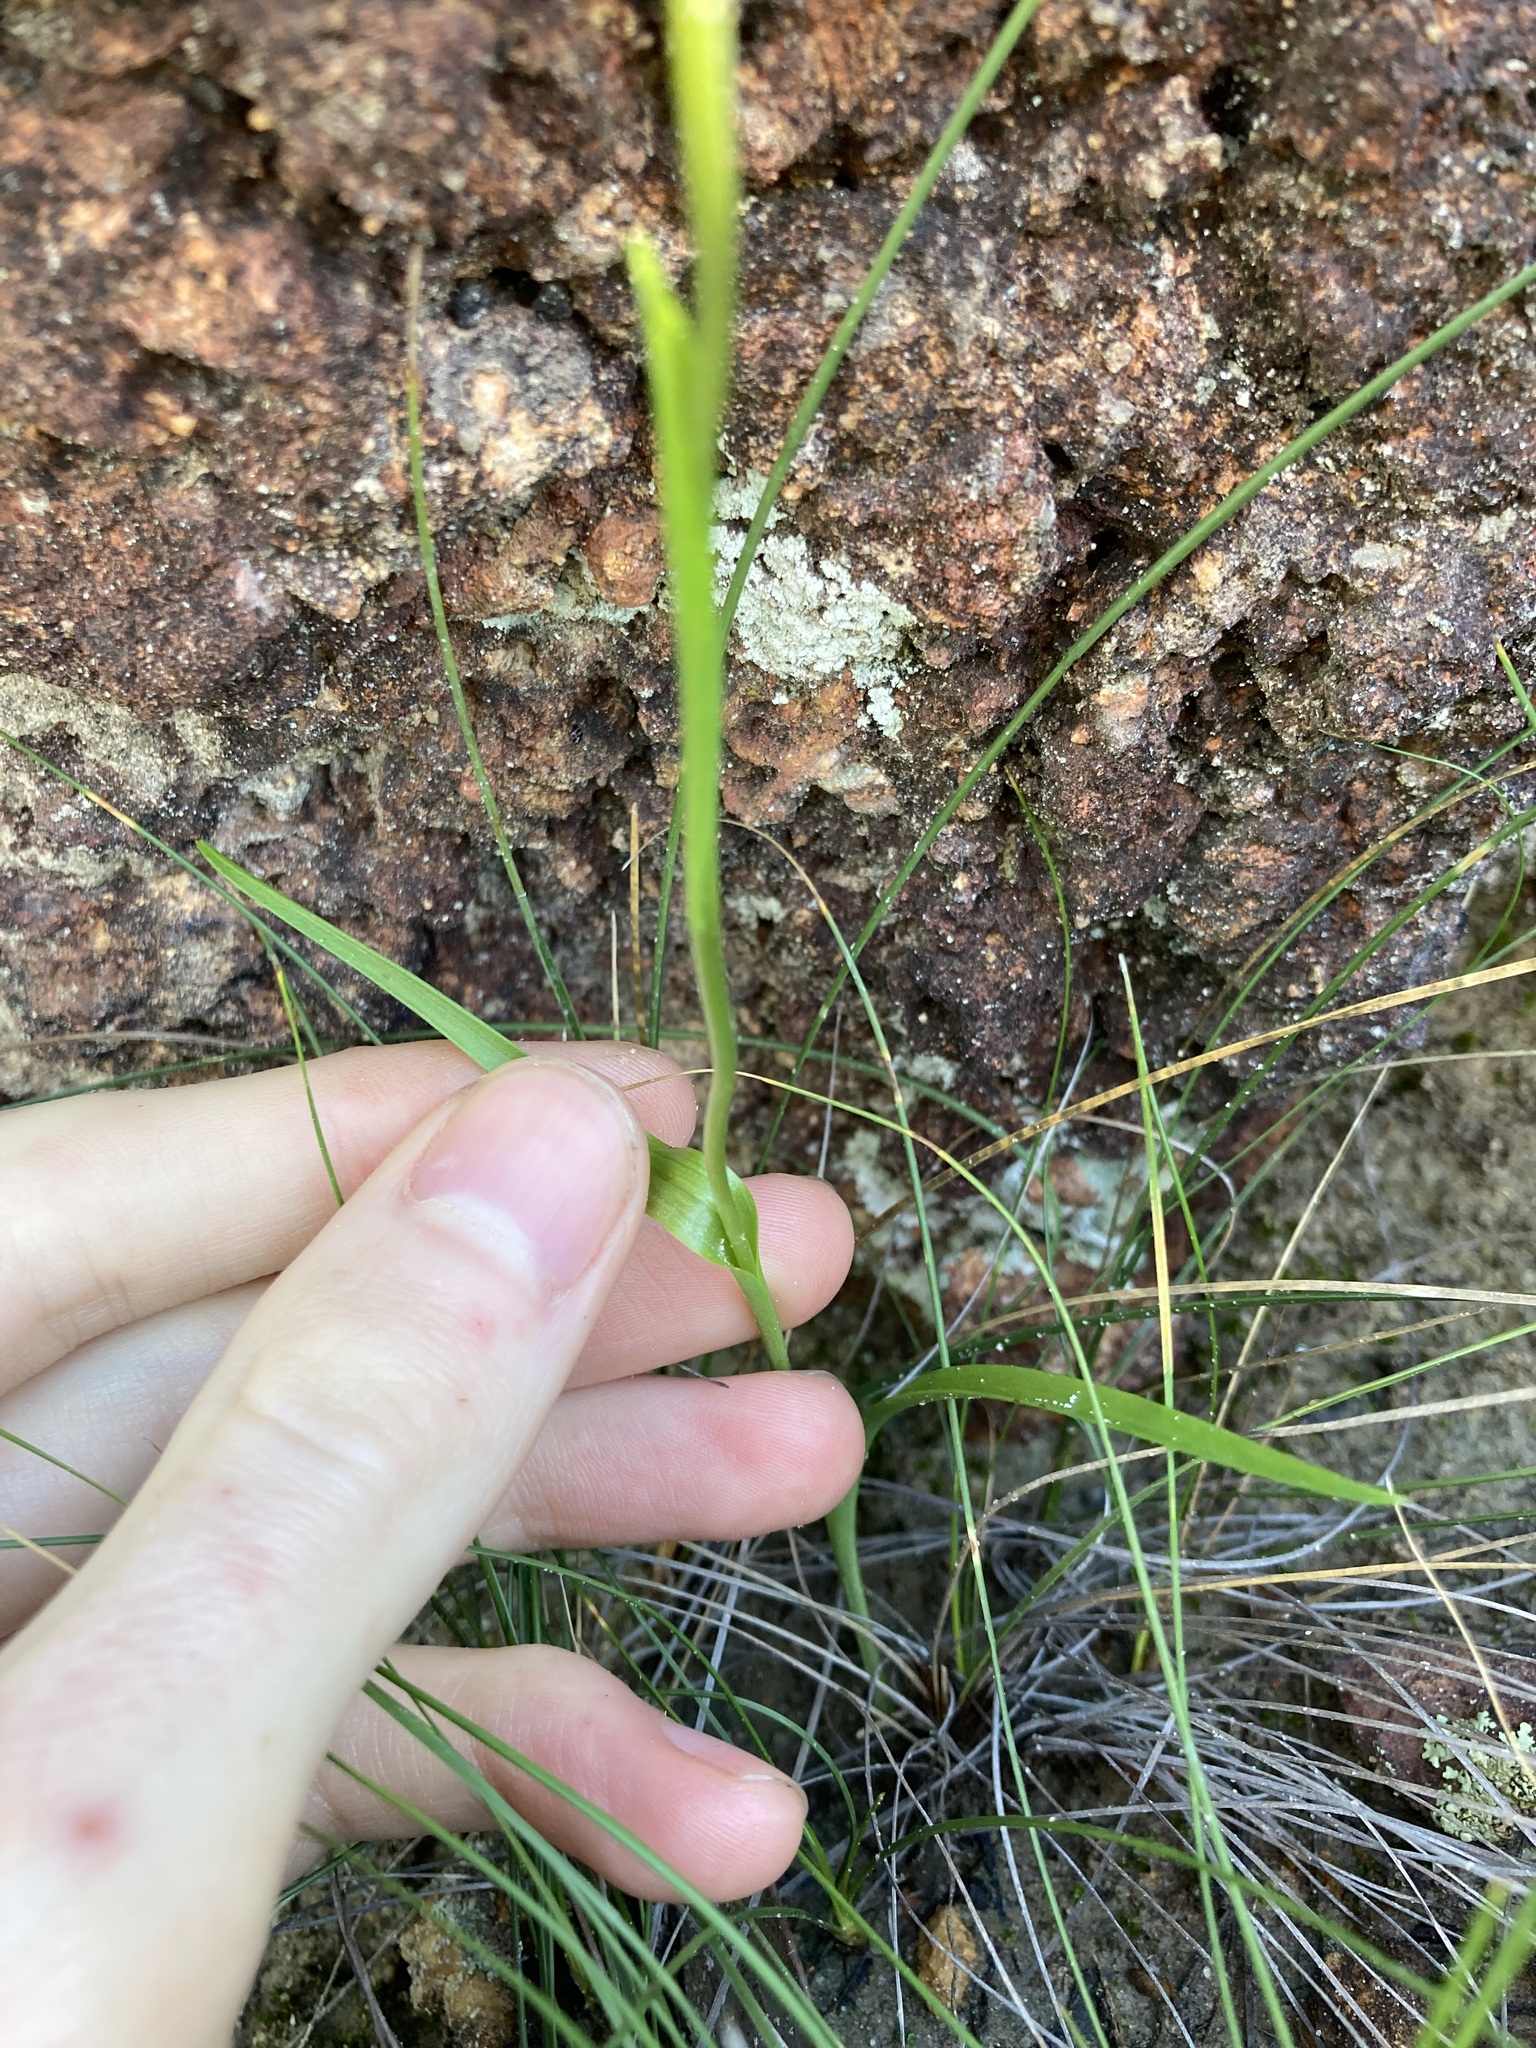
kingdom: Plantae
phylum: Tracheophyta
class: Liliopsida
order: Asparagales
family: Orchidaceae
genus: Diuris
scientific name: Diuris perialla
